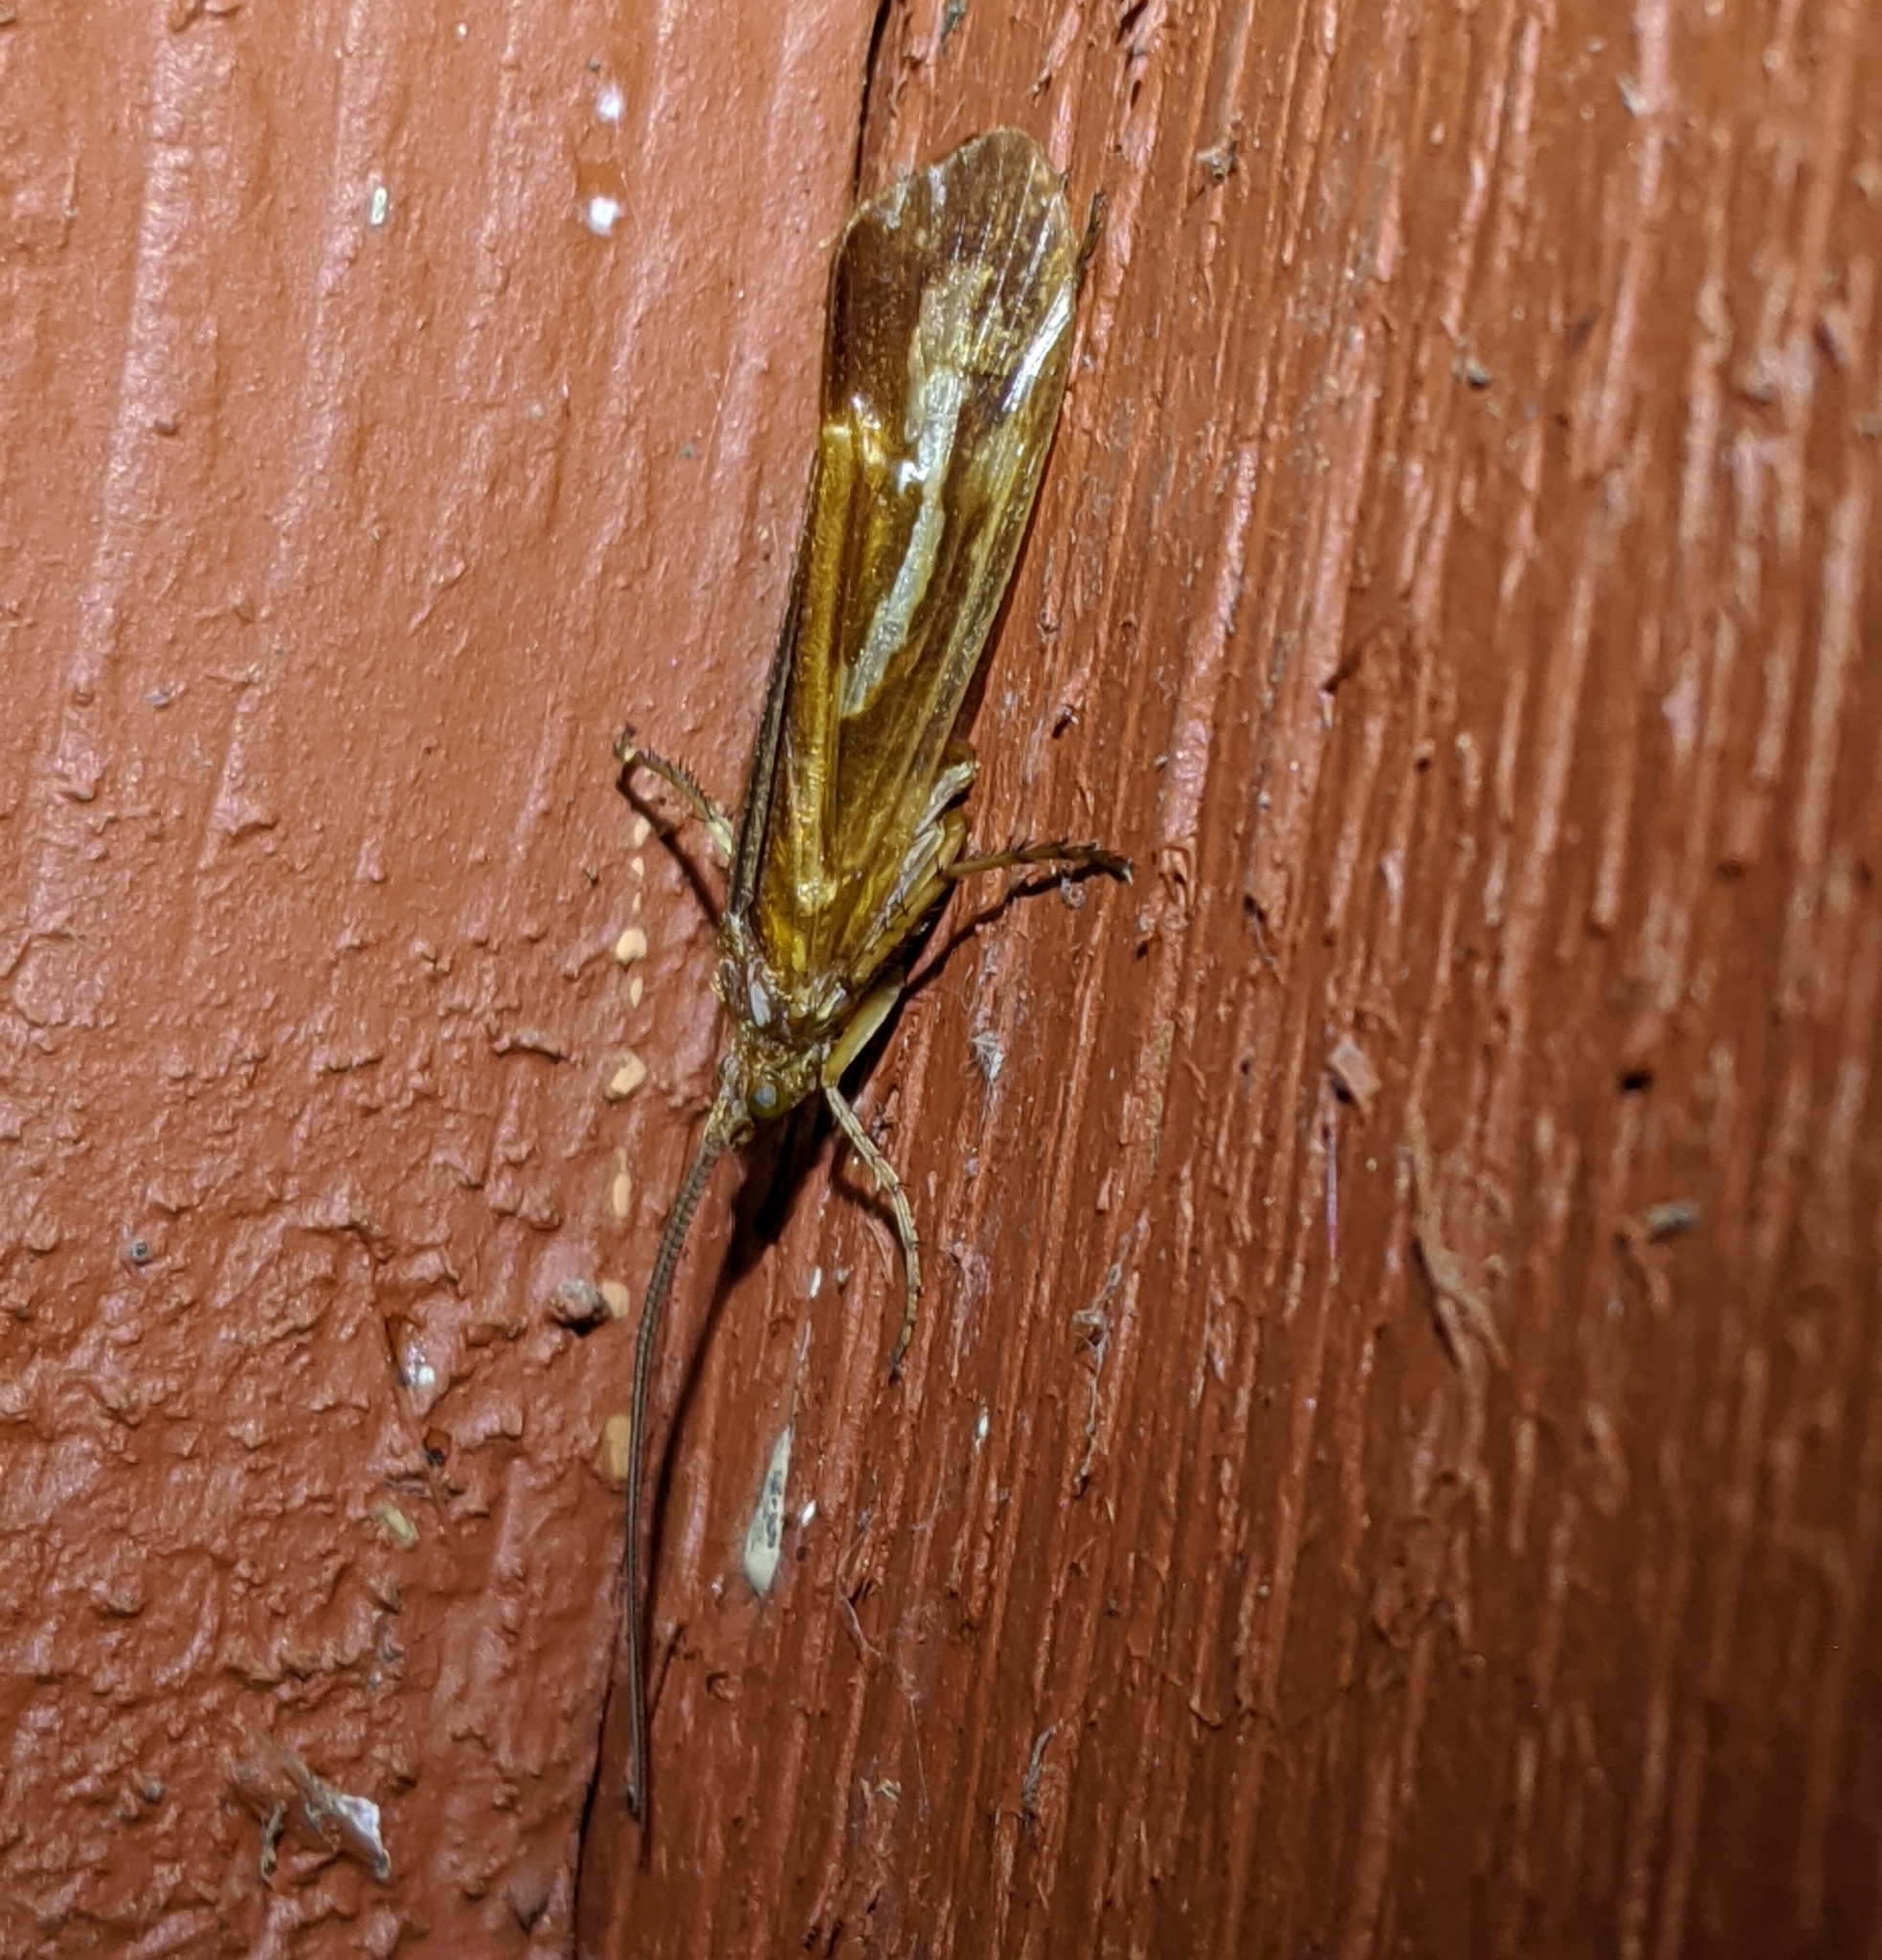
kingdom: Animalia
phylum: Arthropoda
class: Insecta
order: Trichoptera
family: Limnephilidae
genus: Limnephilus
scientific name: Limnephilus flavastellus
